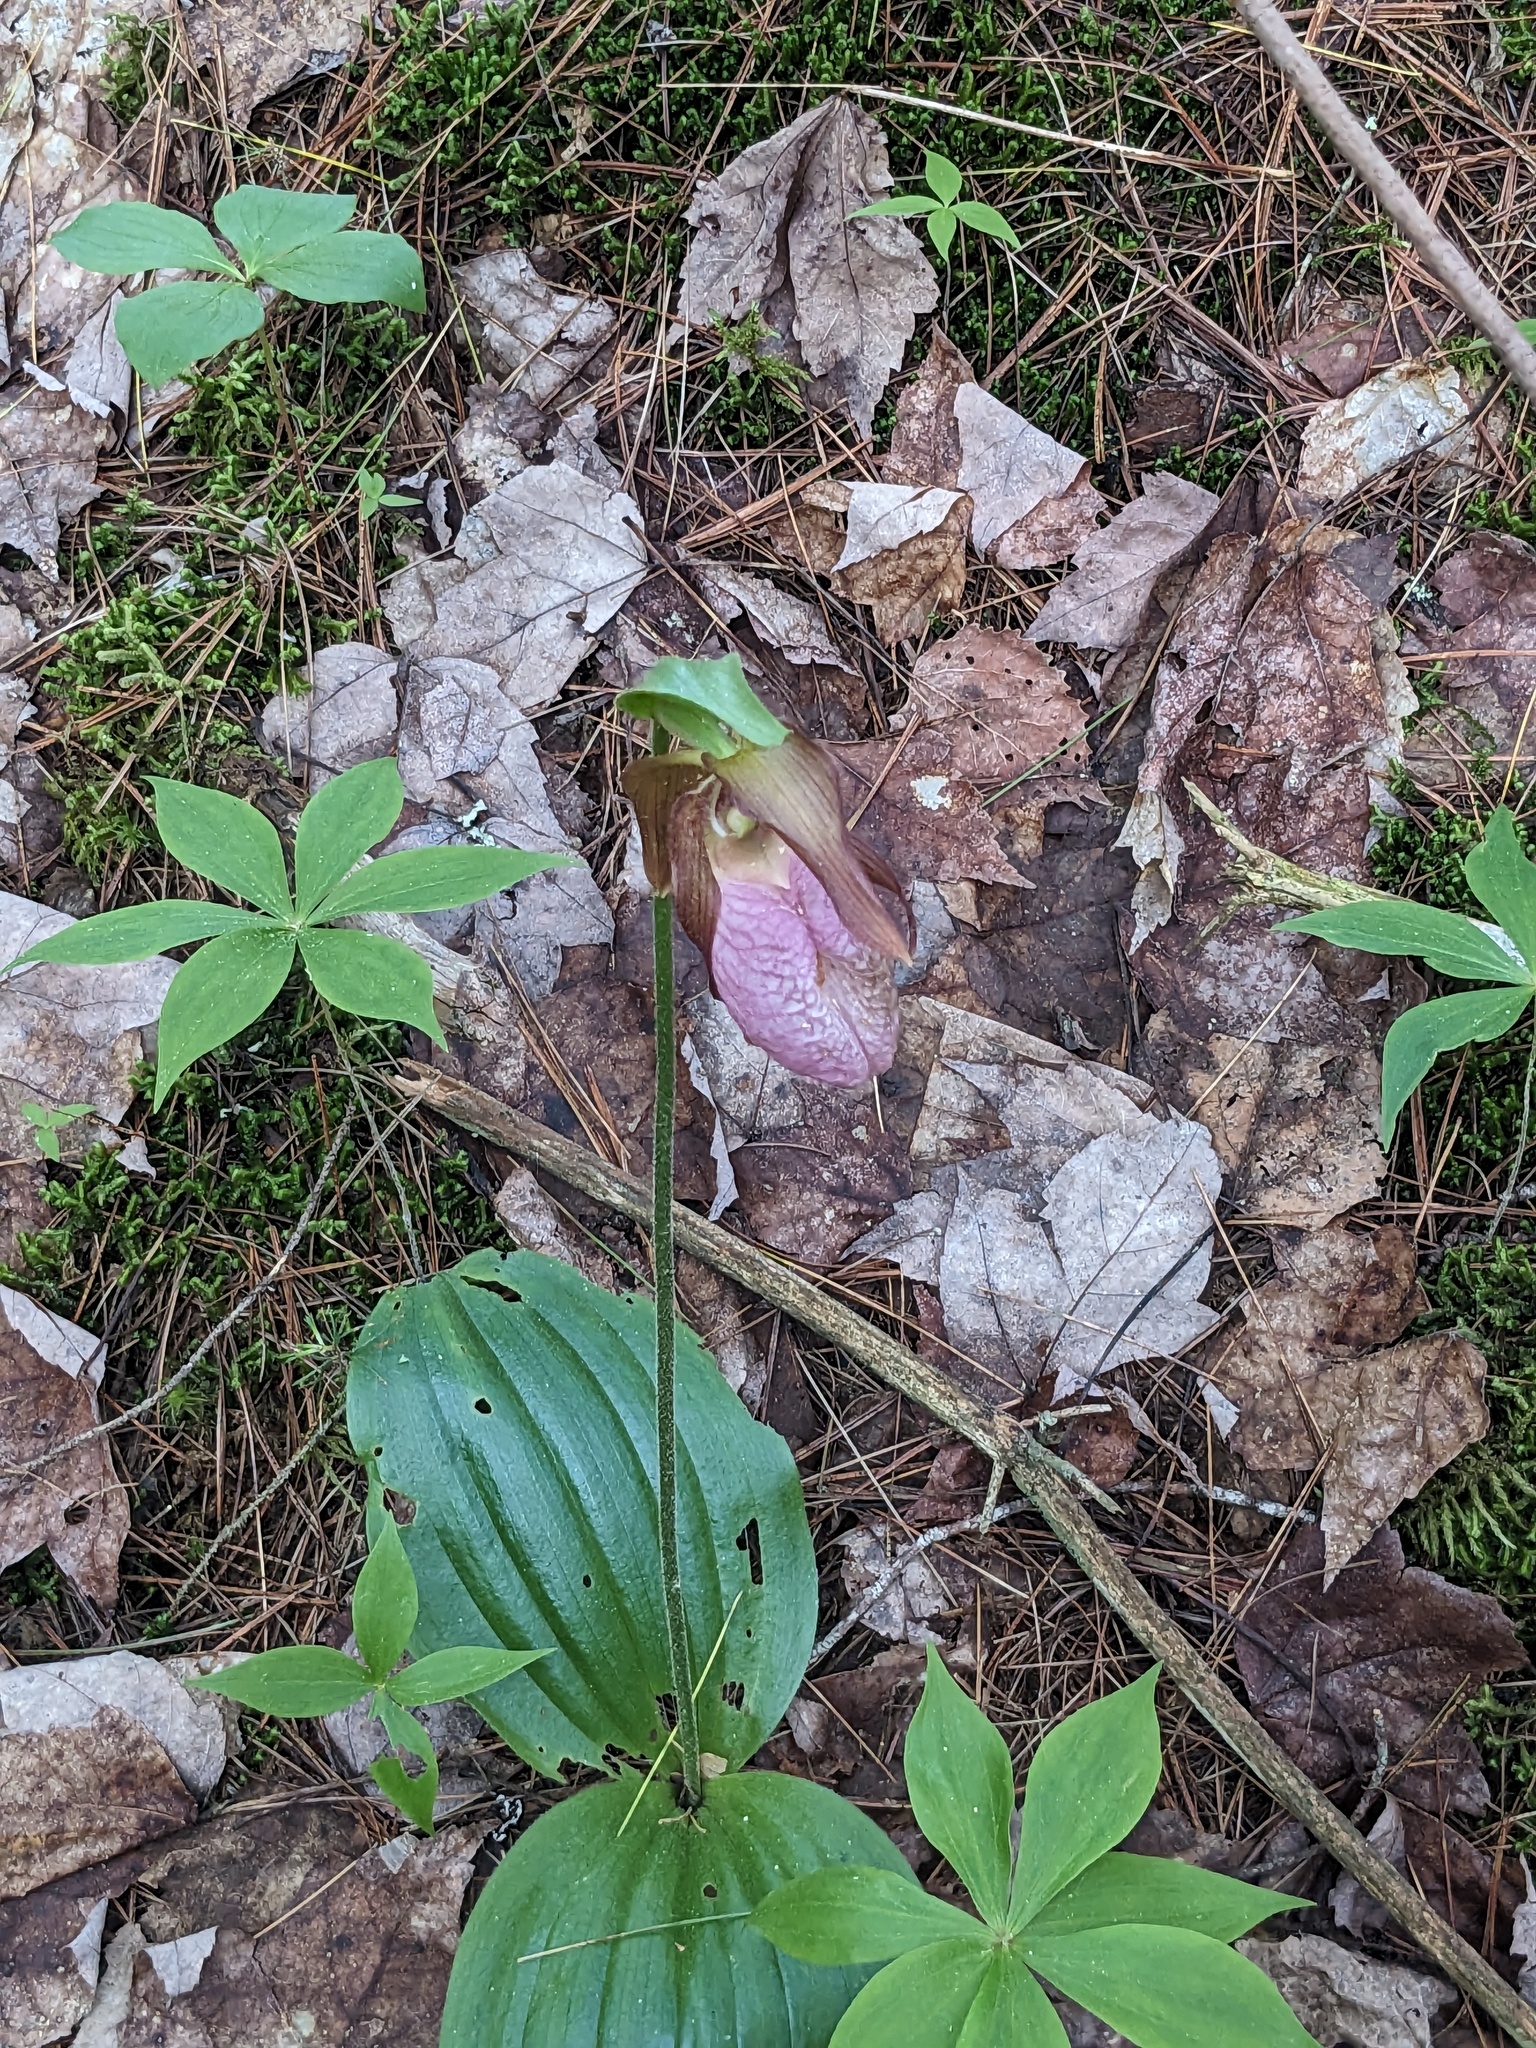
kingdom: Plantae
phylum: Tracheophyta
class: Liliopsida
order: Asparagales
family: Orchidaceae
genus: Cypripedium
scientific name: Cypripedium acaule
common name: Pink lady's-slipper
